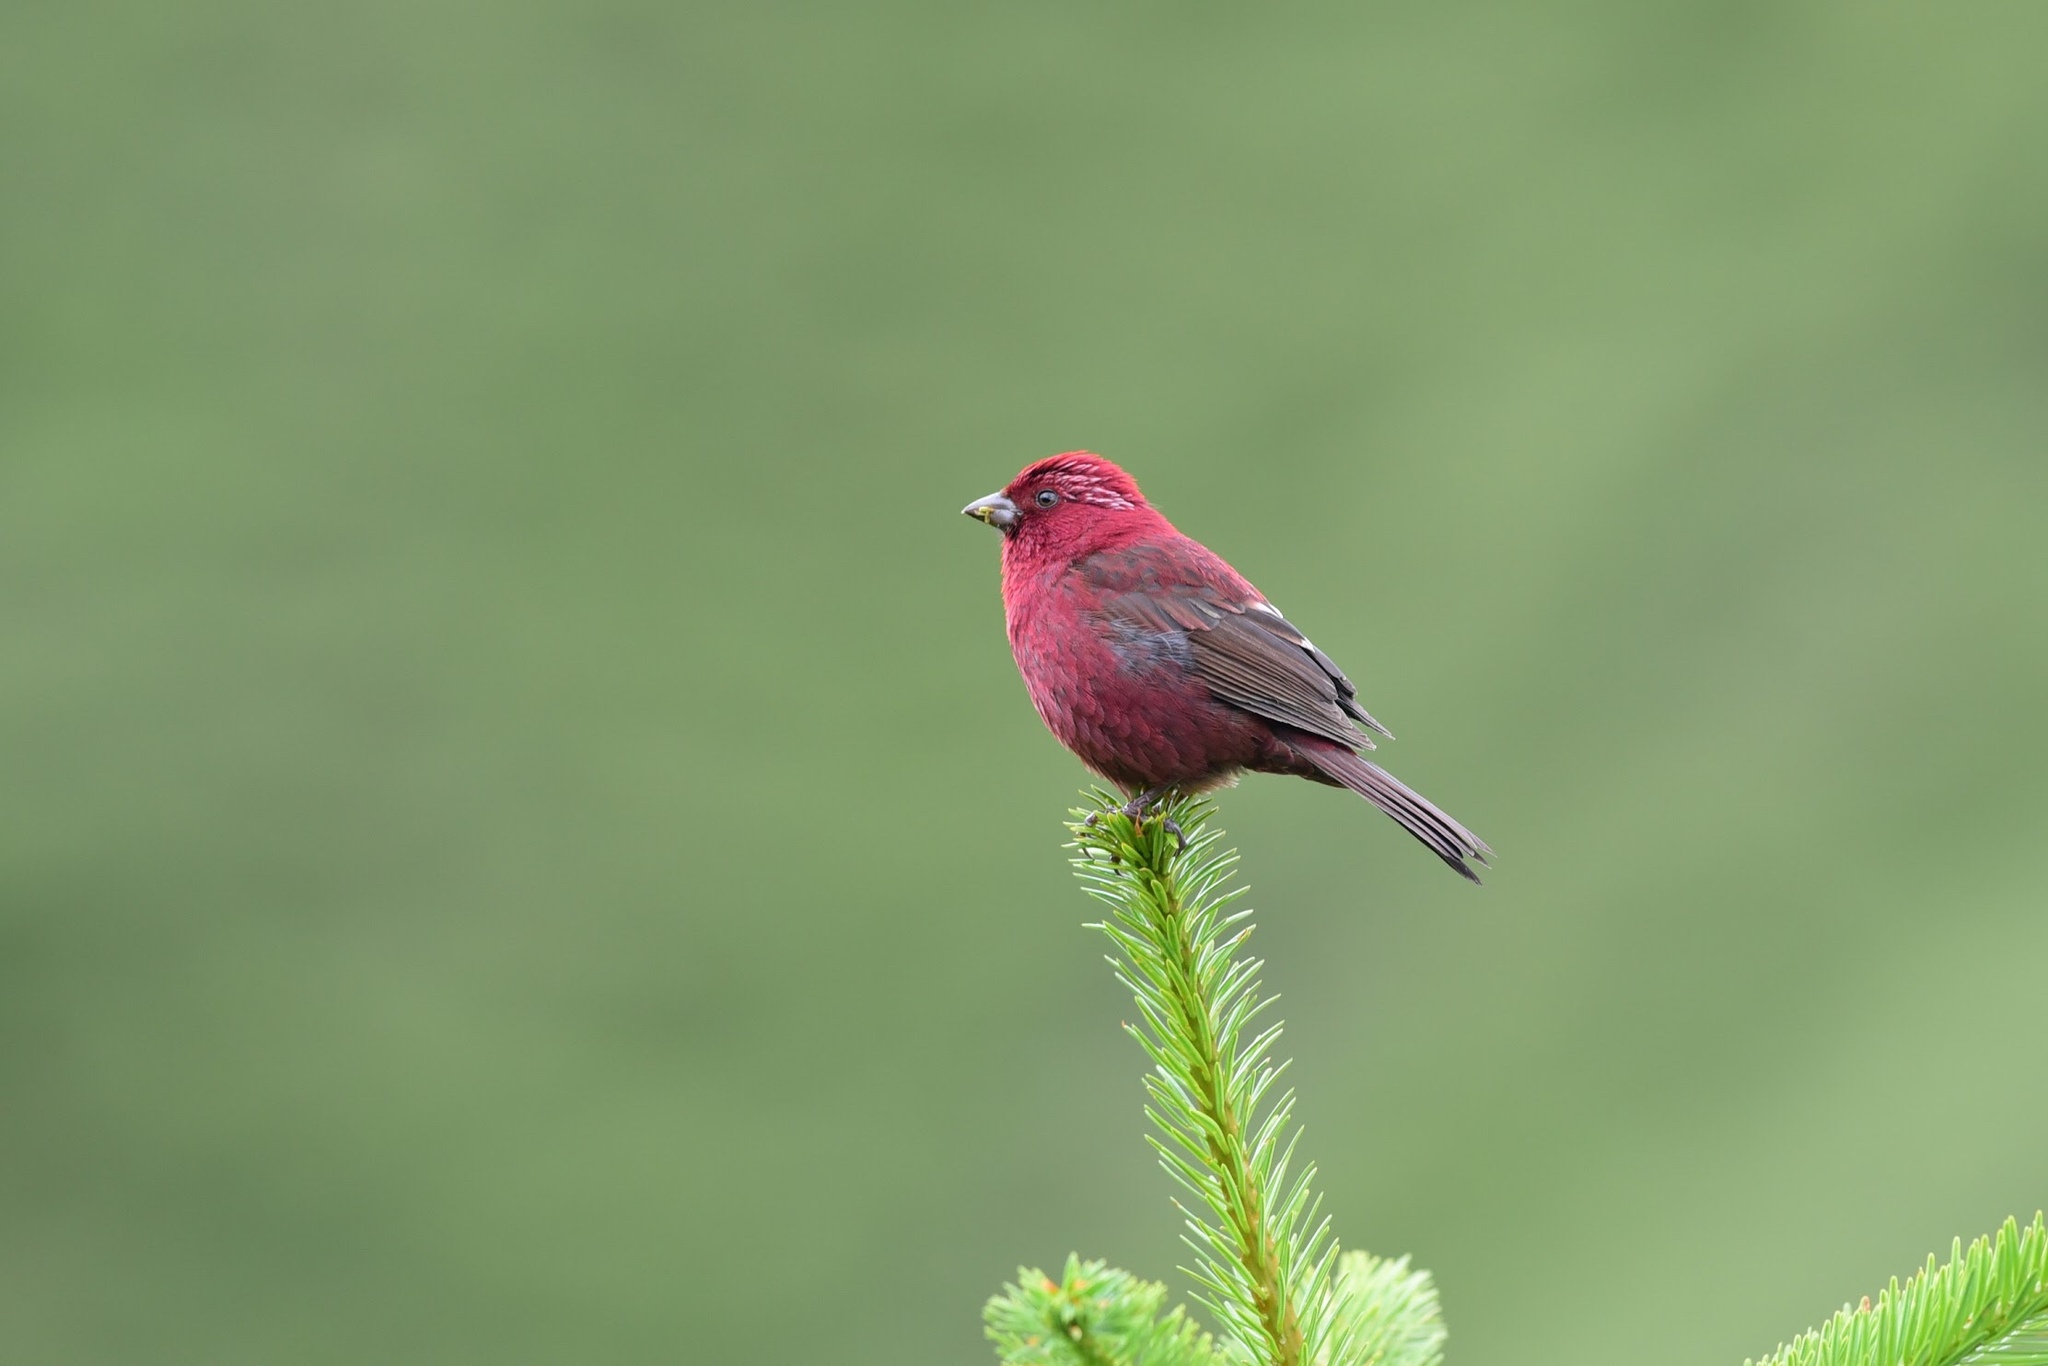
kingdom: Animalia
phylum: Chordata
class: Aves
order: Passeriformes
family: Fringillidae
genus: Carpodacus
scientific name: Carpodacus formosanus
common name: Taiwan rosefinch
